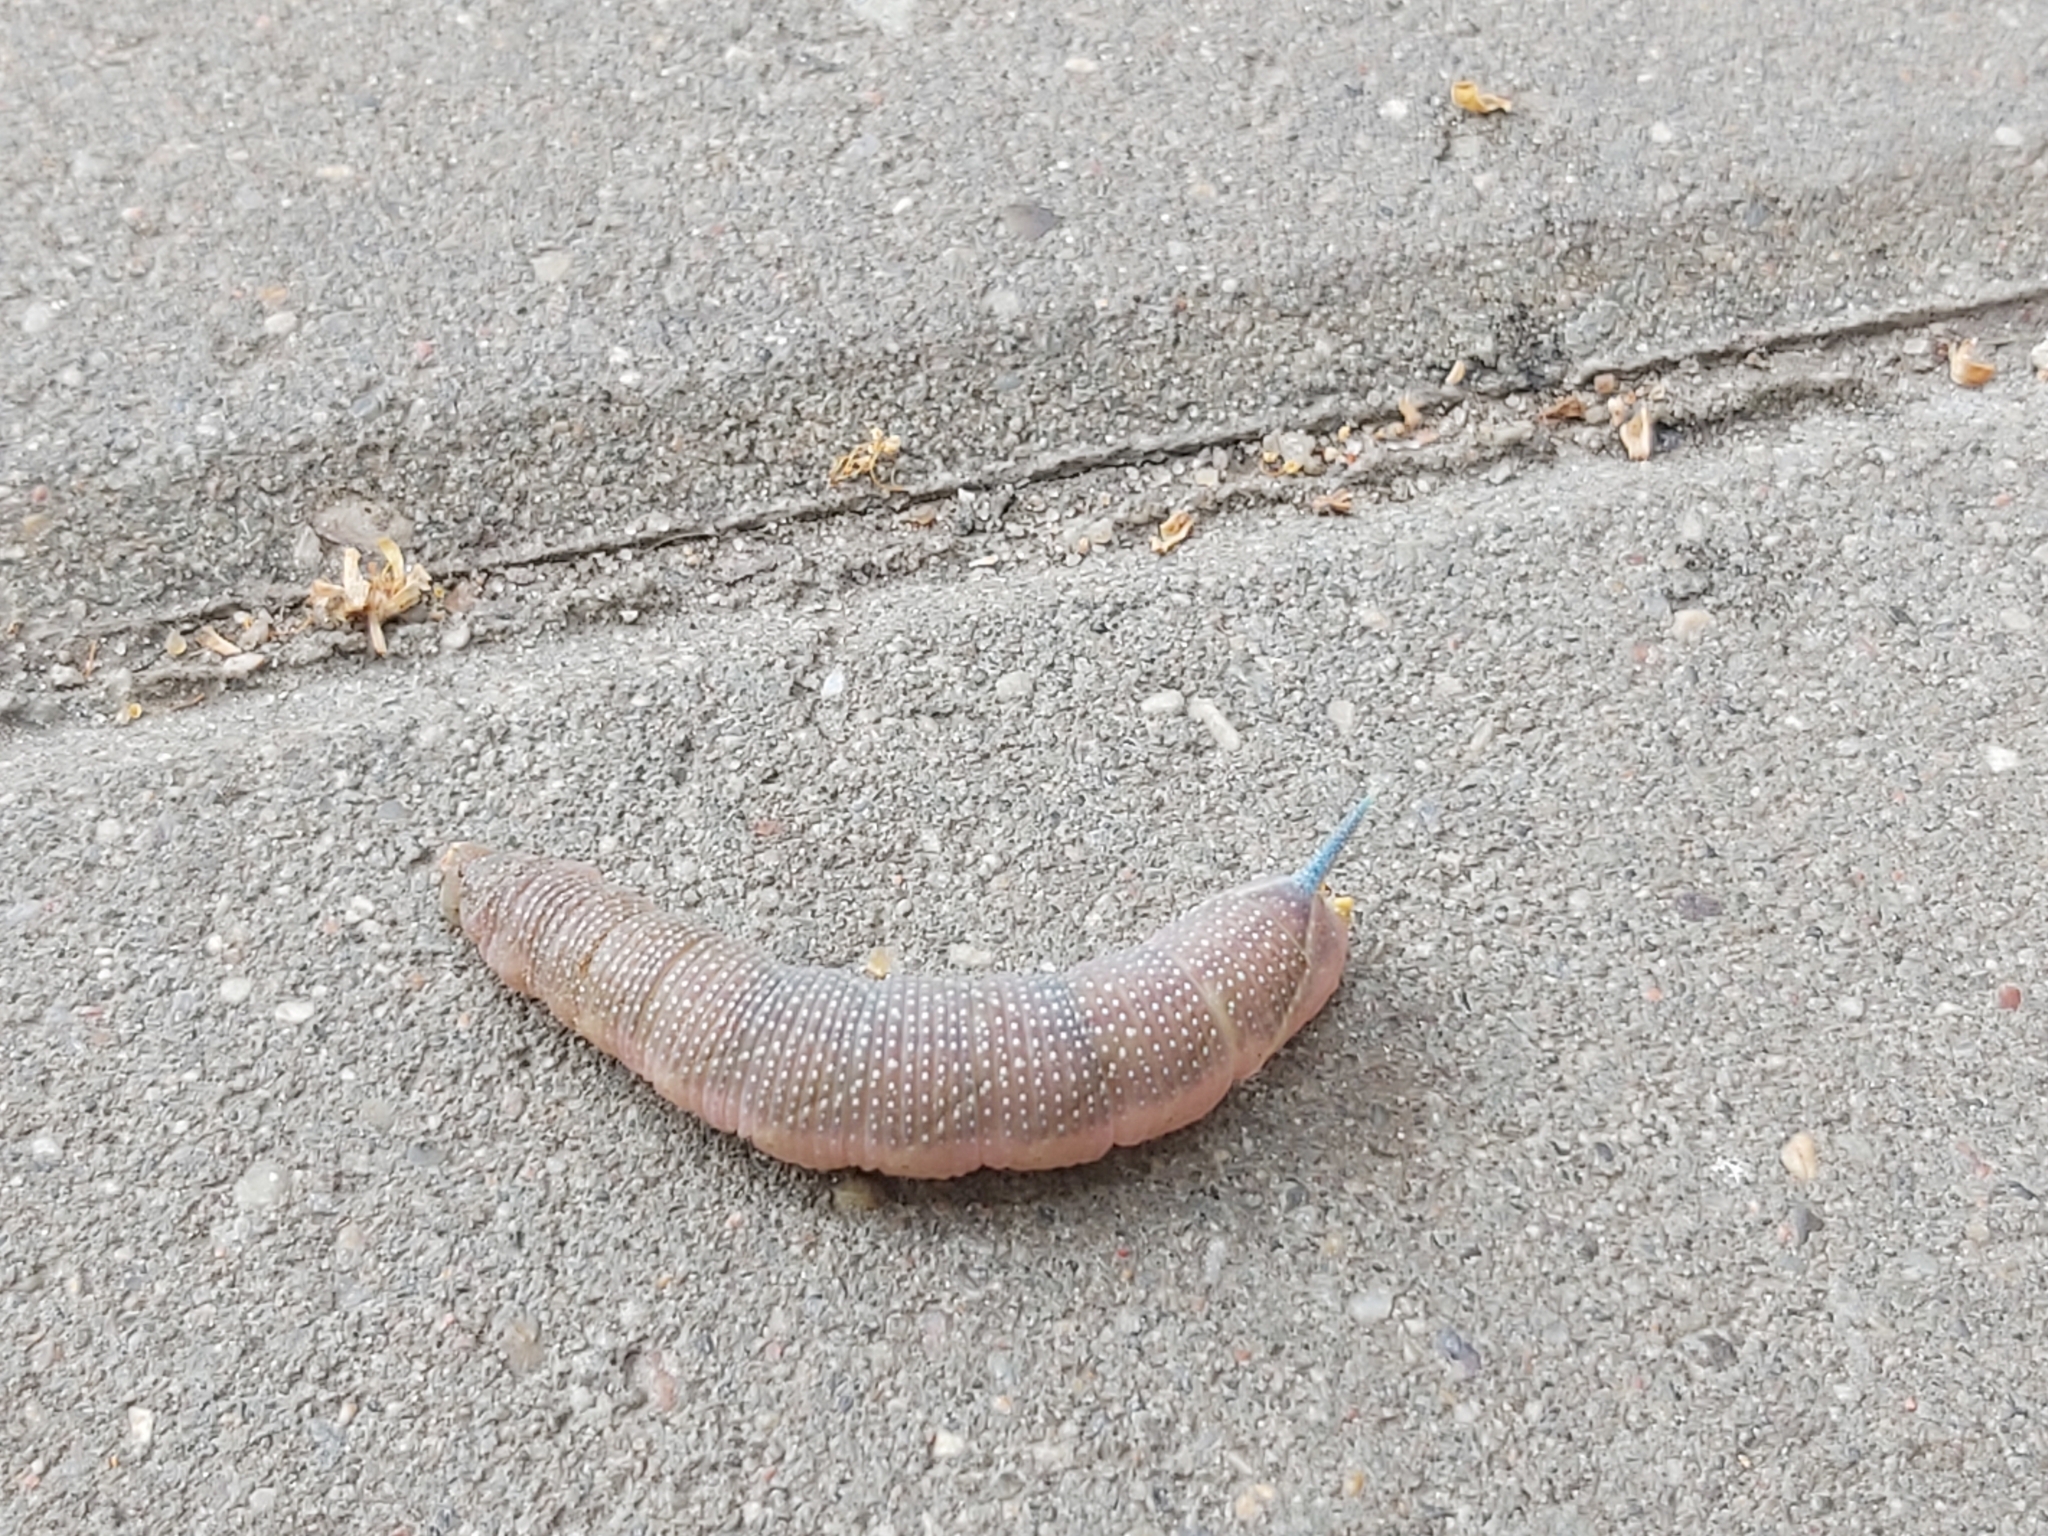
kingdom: Animalia
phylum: Arthropoda
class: Insecta
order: Lepidoptera
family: Sphingidae
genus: Mimas
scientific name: Mimas tiliae
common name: Lime hawk-moth
